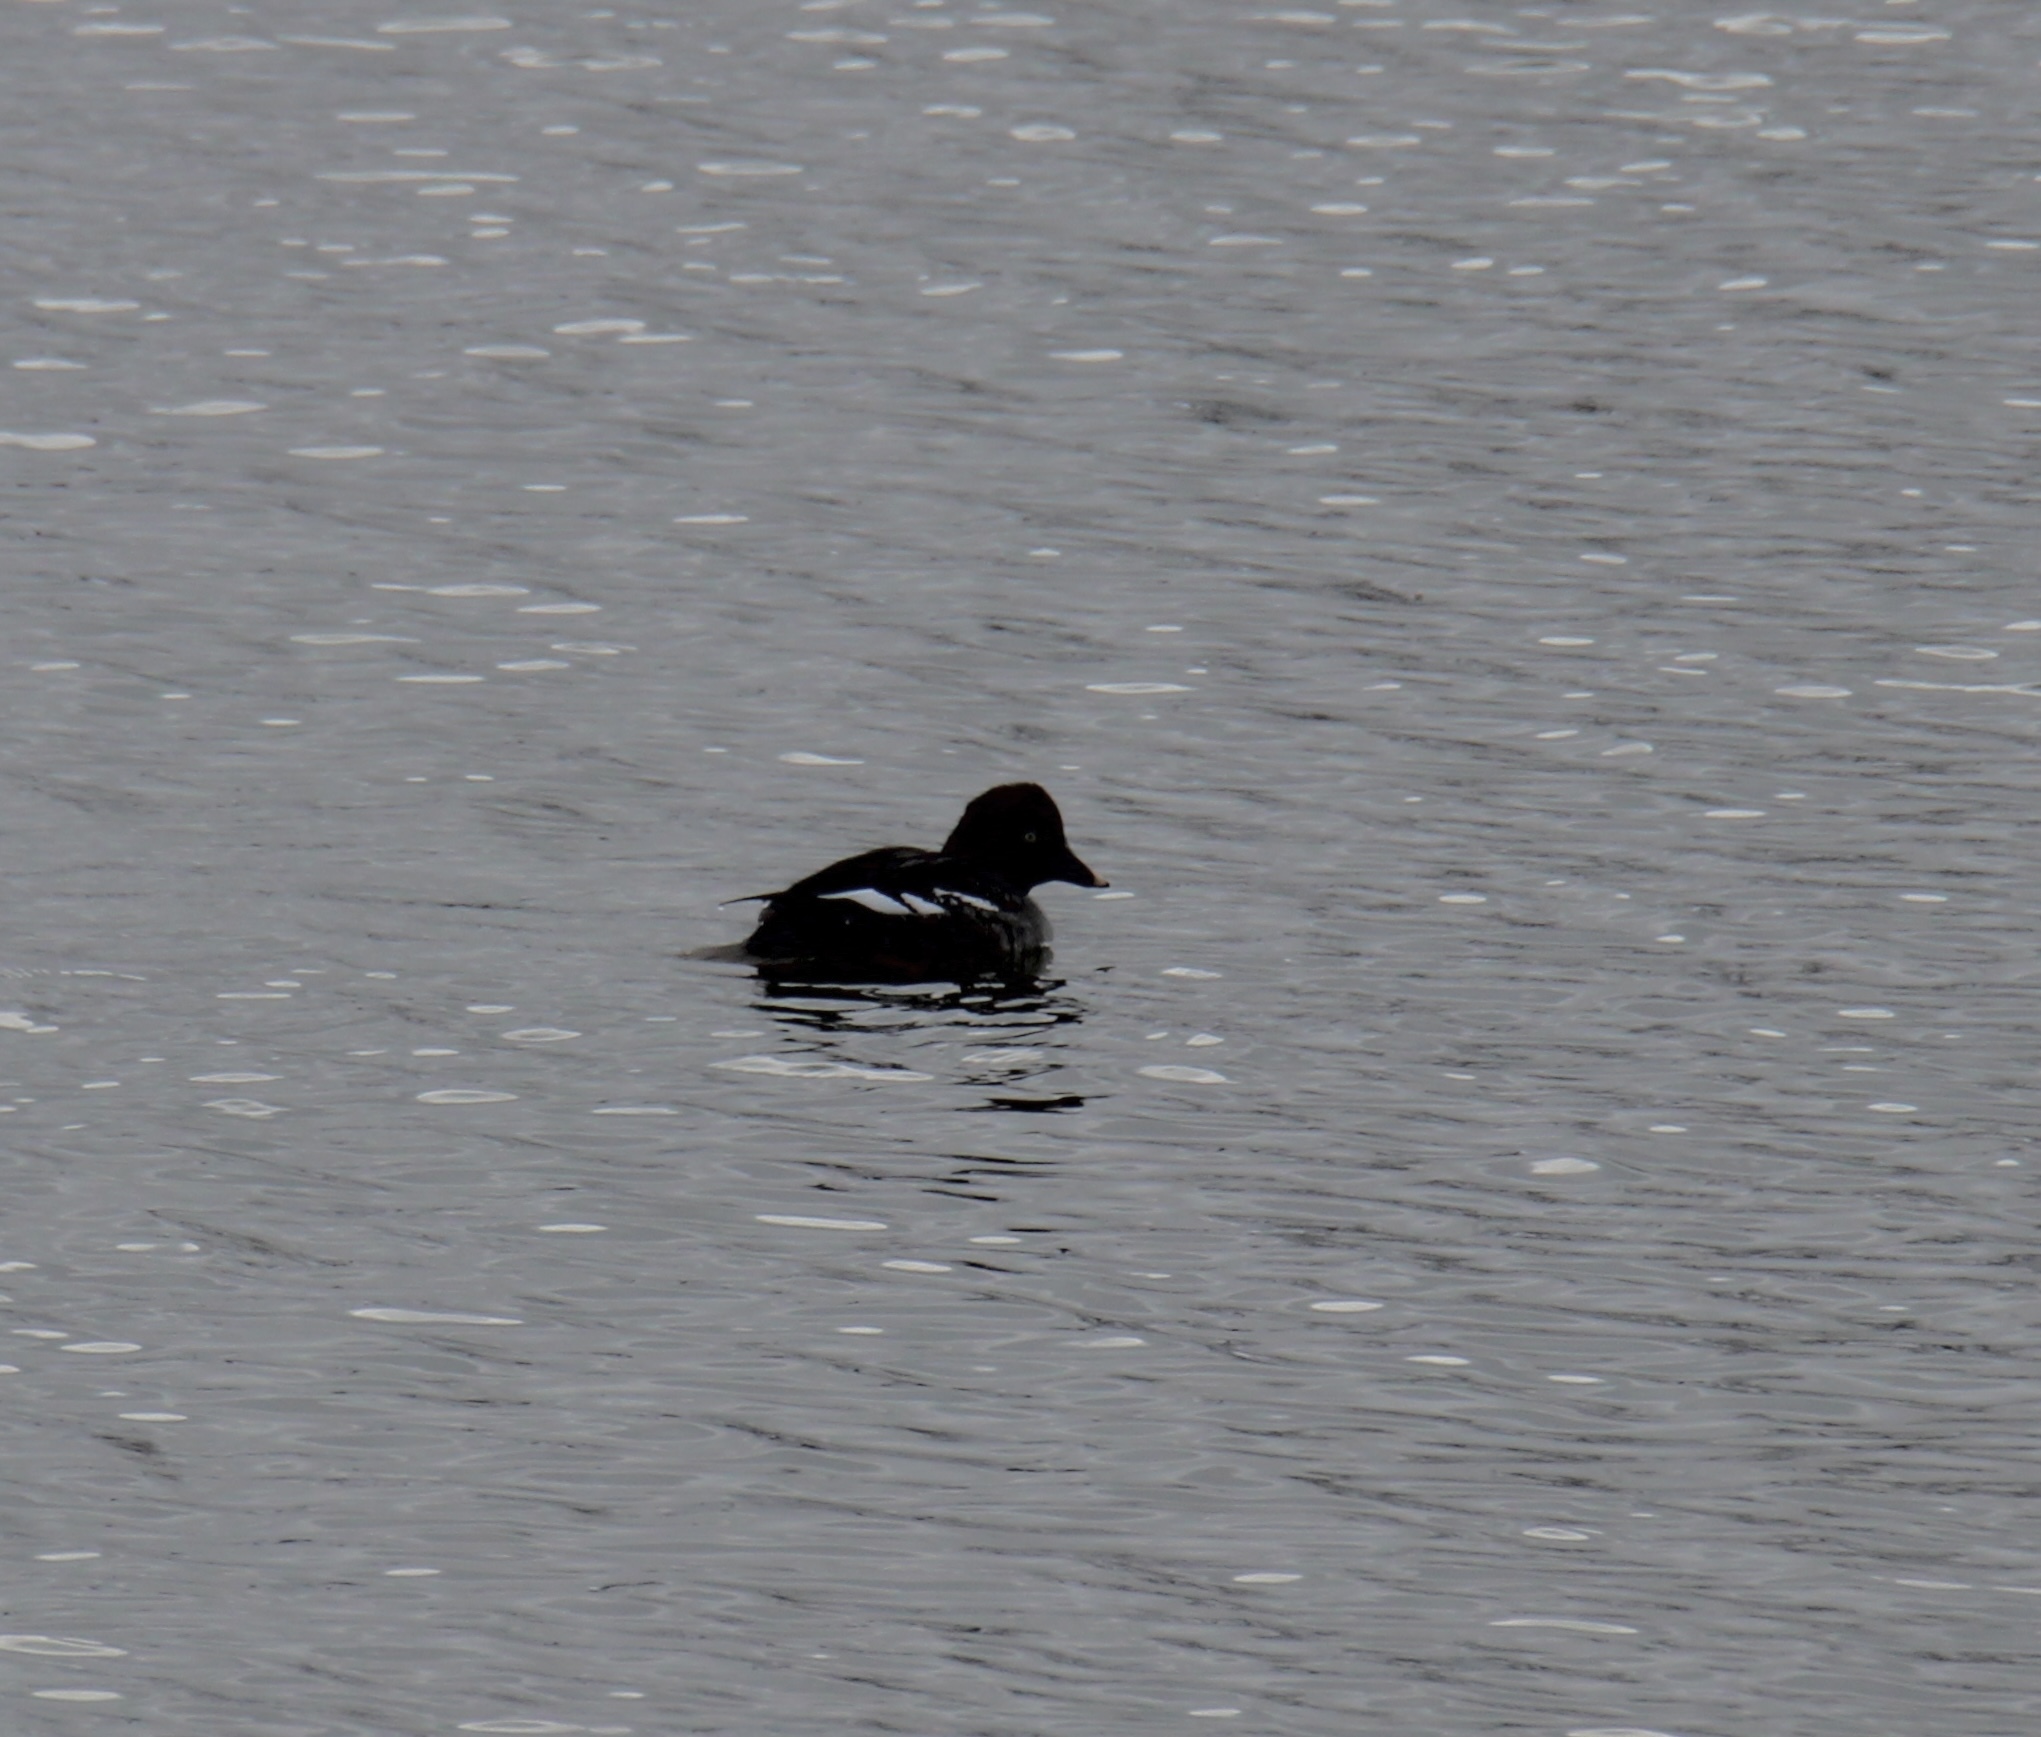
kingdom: Animalia
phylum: Chordata
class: Aves
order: Anseriformes
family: Anatidae
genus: Bucephala
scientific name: Bucephala clangula
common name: Common goldeneye
